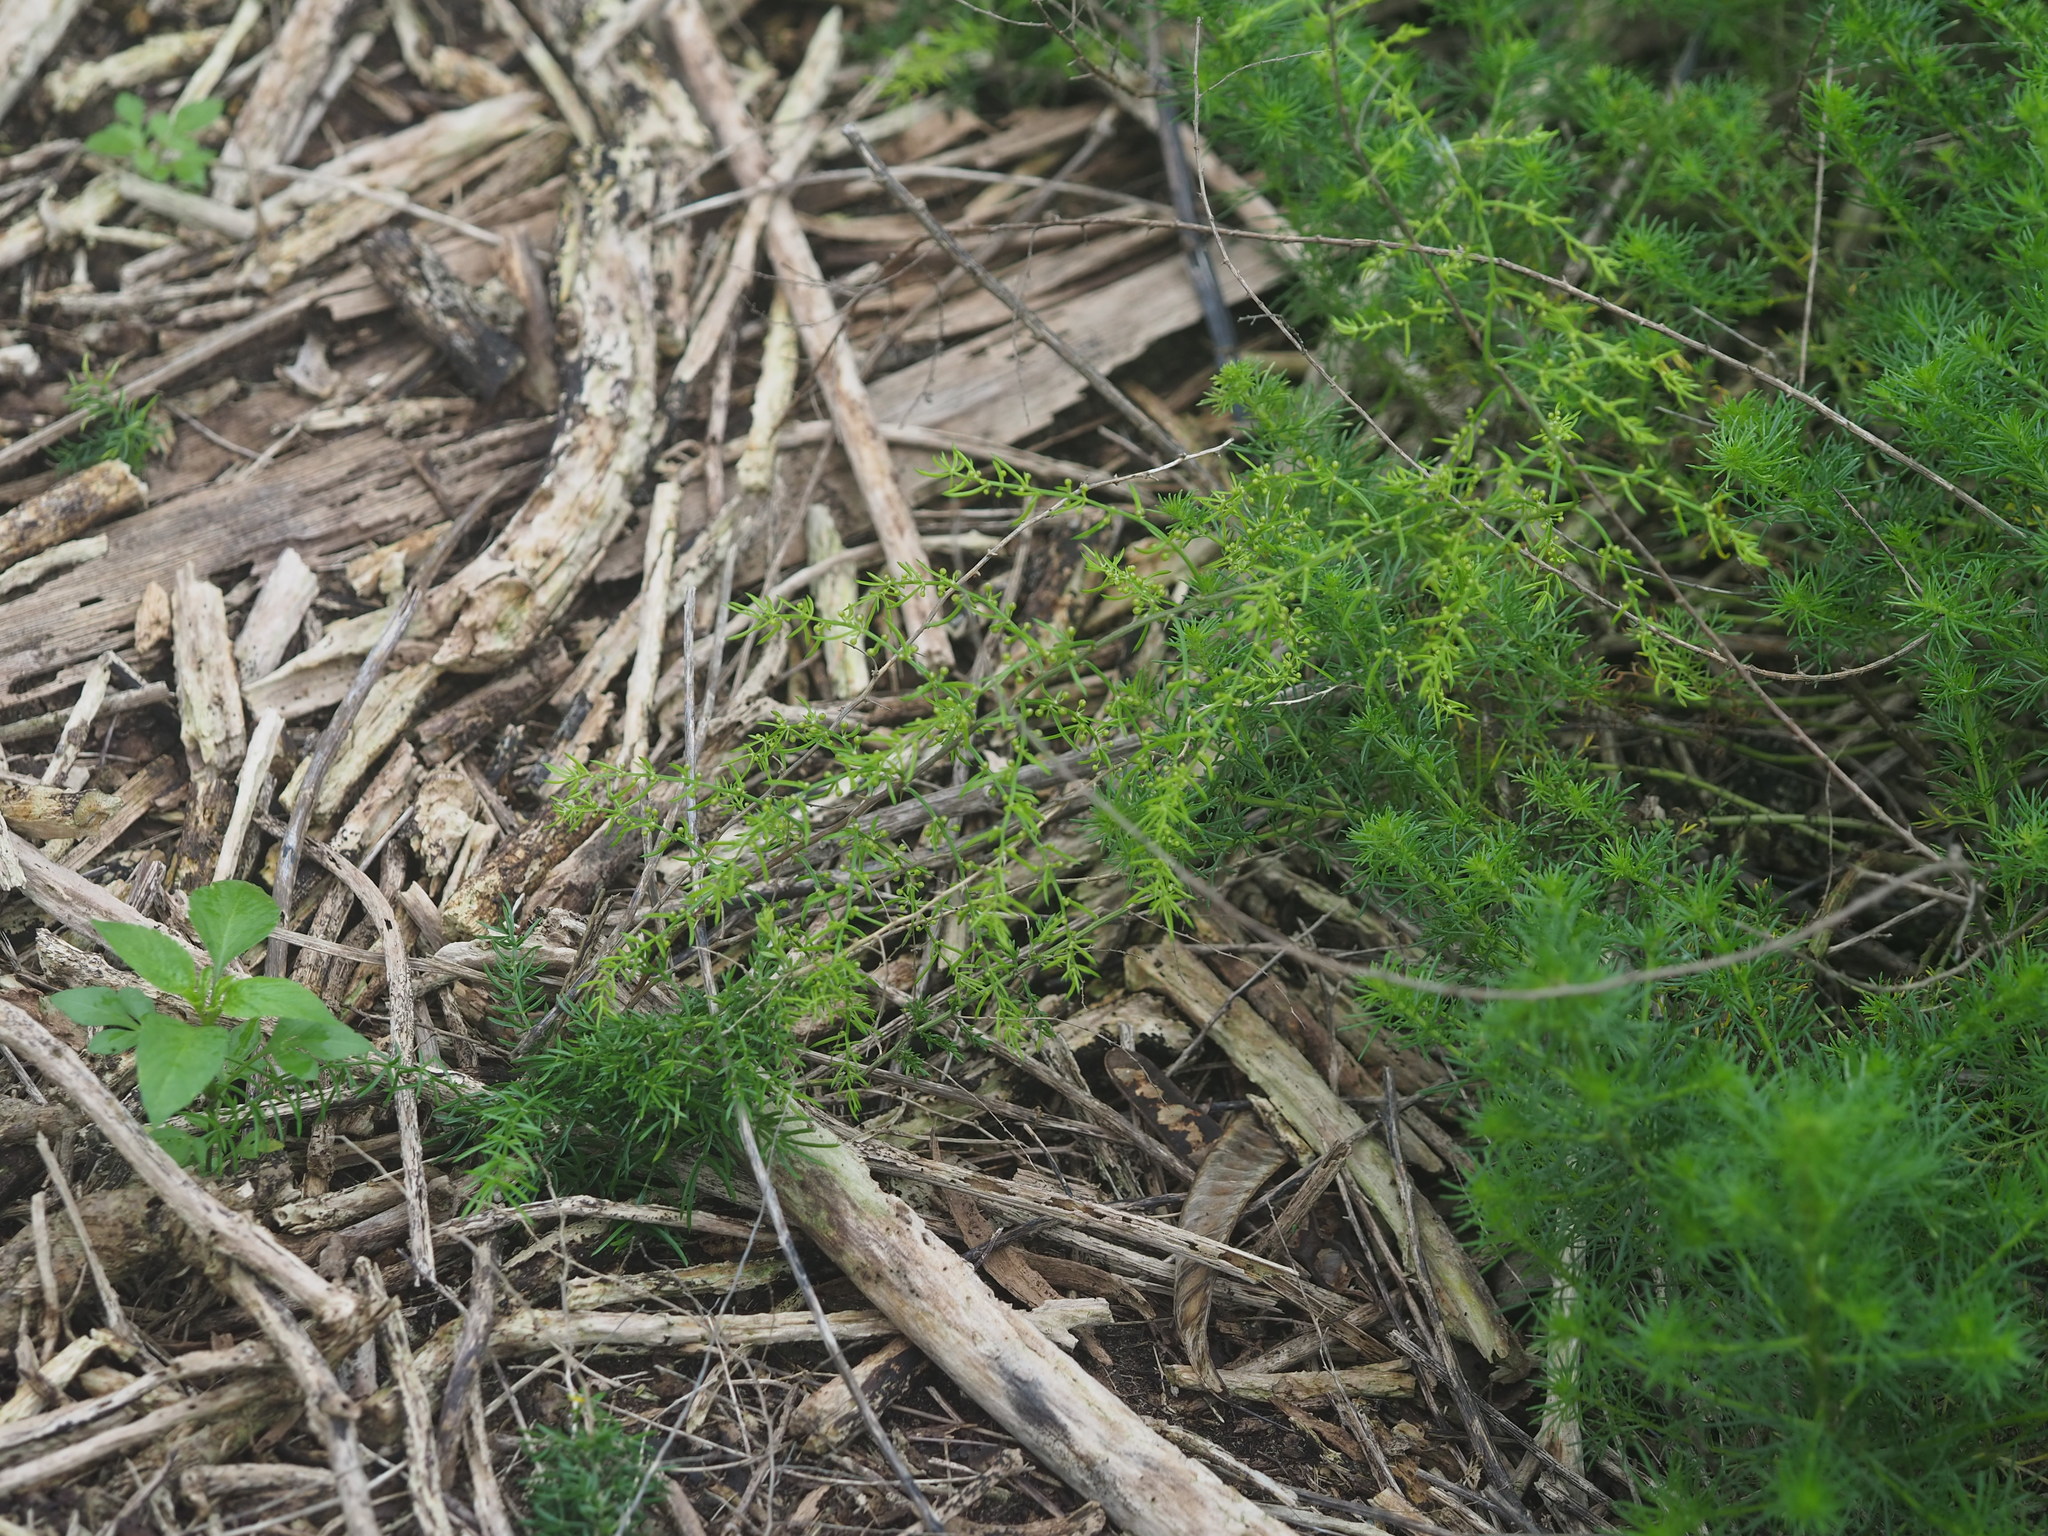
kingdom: Plantae
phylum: Tracheophyta
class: Liliopsida
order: Asparagales
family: Asparagaceae
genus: Asparagus
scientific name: Asparagus cochinchinensis
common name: Chinese asparagus
